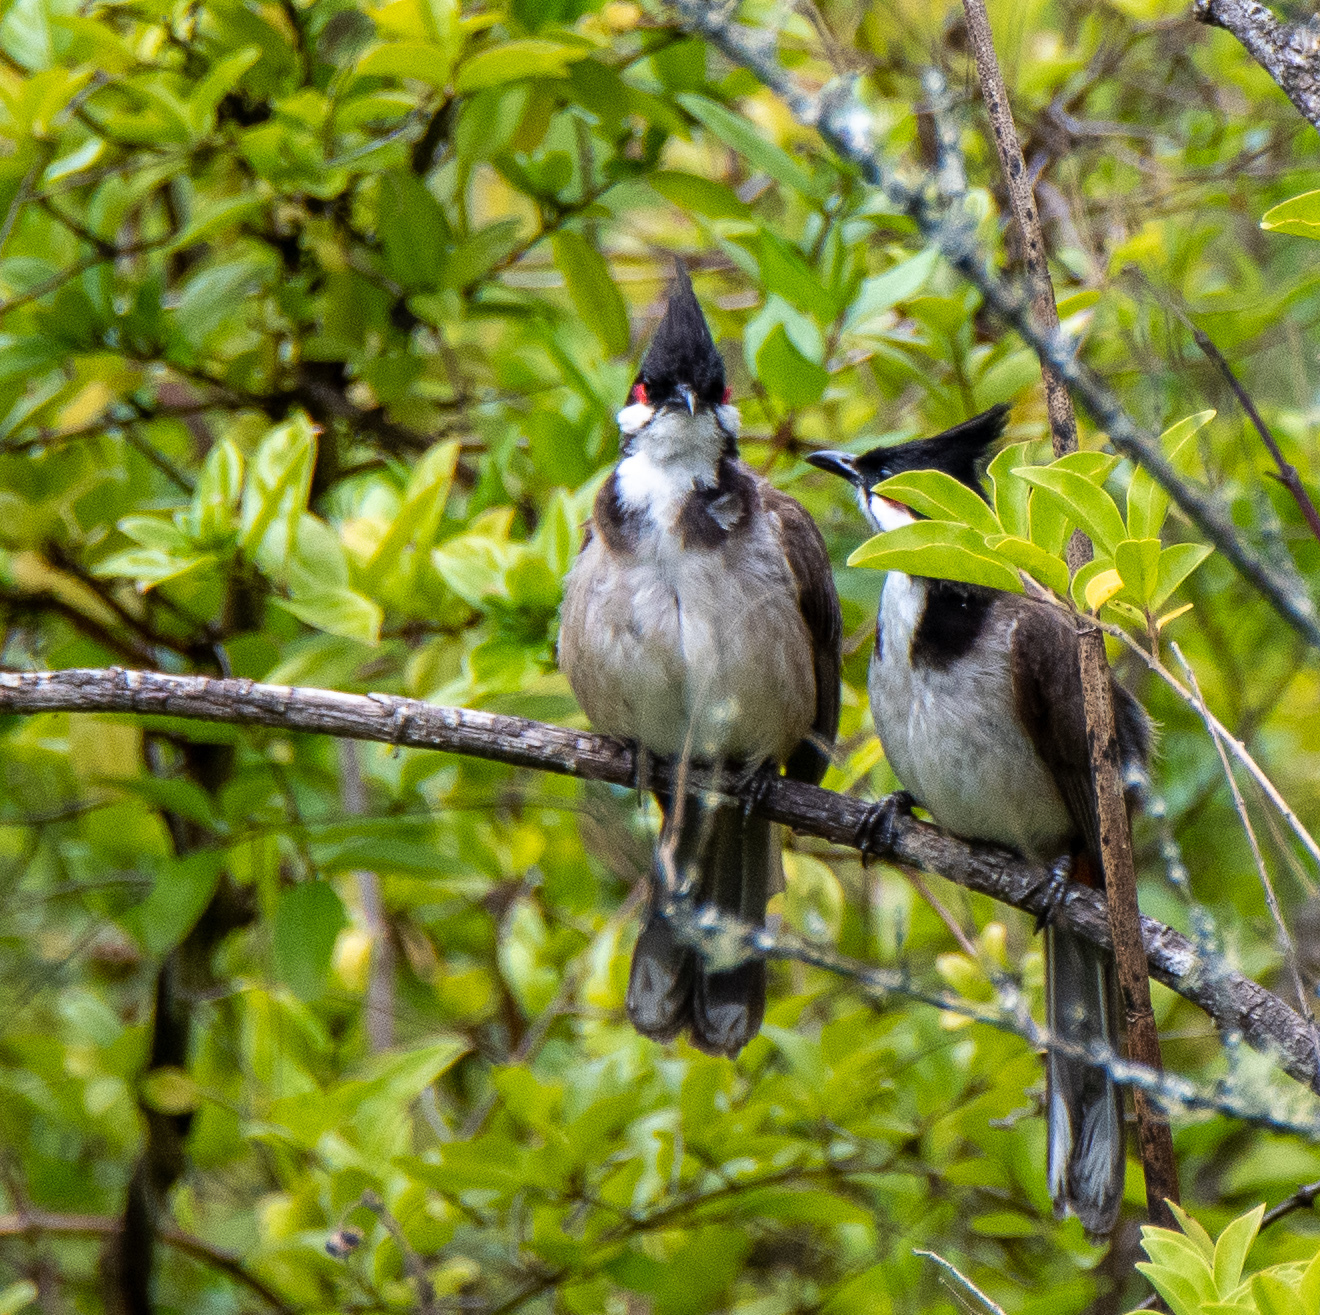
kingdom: Animalia
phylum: Chordata
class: Aves
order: Passeriformes
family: Pycnonotidae
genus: Pycnonotus
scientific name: Pycnonotus jocosus
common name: Red-whiskered bulbul
